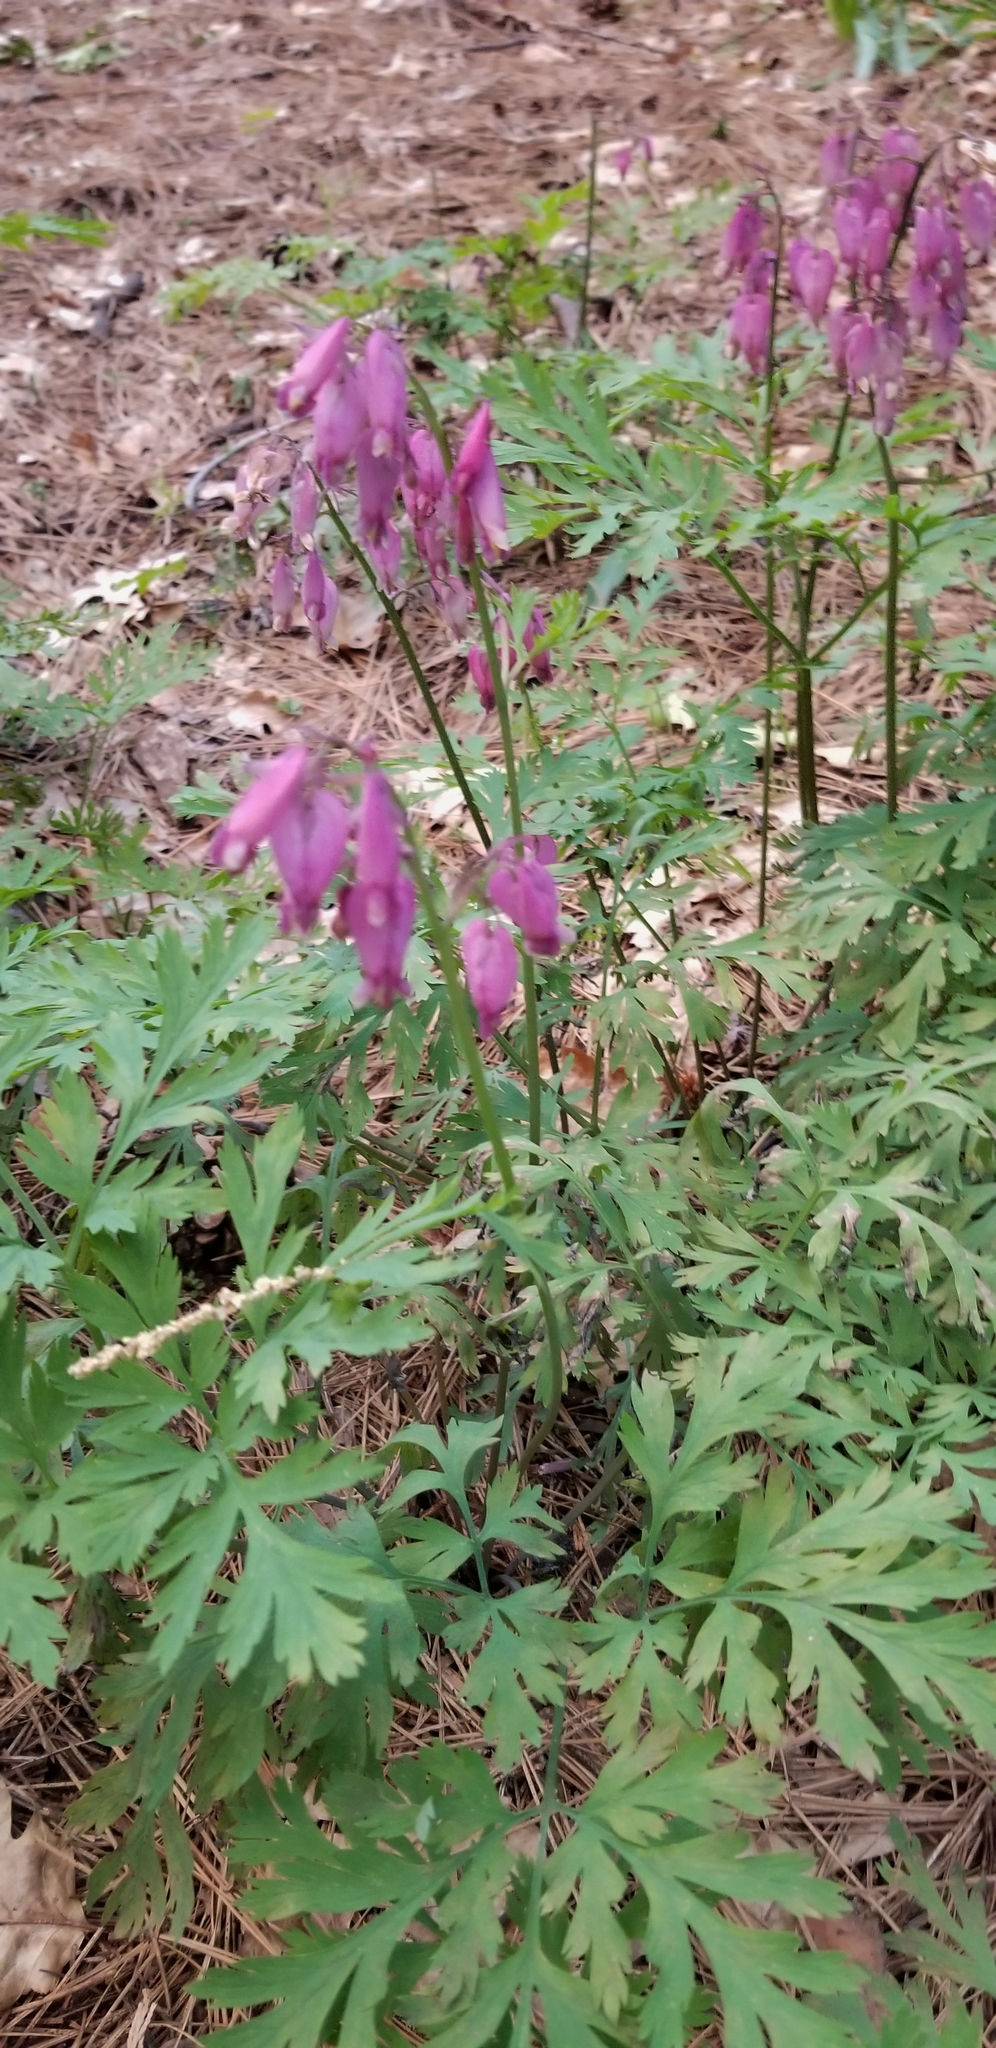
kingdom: Plantae
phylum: Tracheophyta
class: Magnoliopsida
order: Ranunculales
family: Papaveraceae
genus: Dicentra
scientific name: Dicentra formosa
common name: Bleeding-heart
